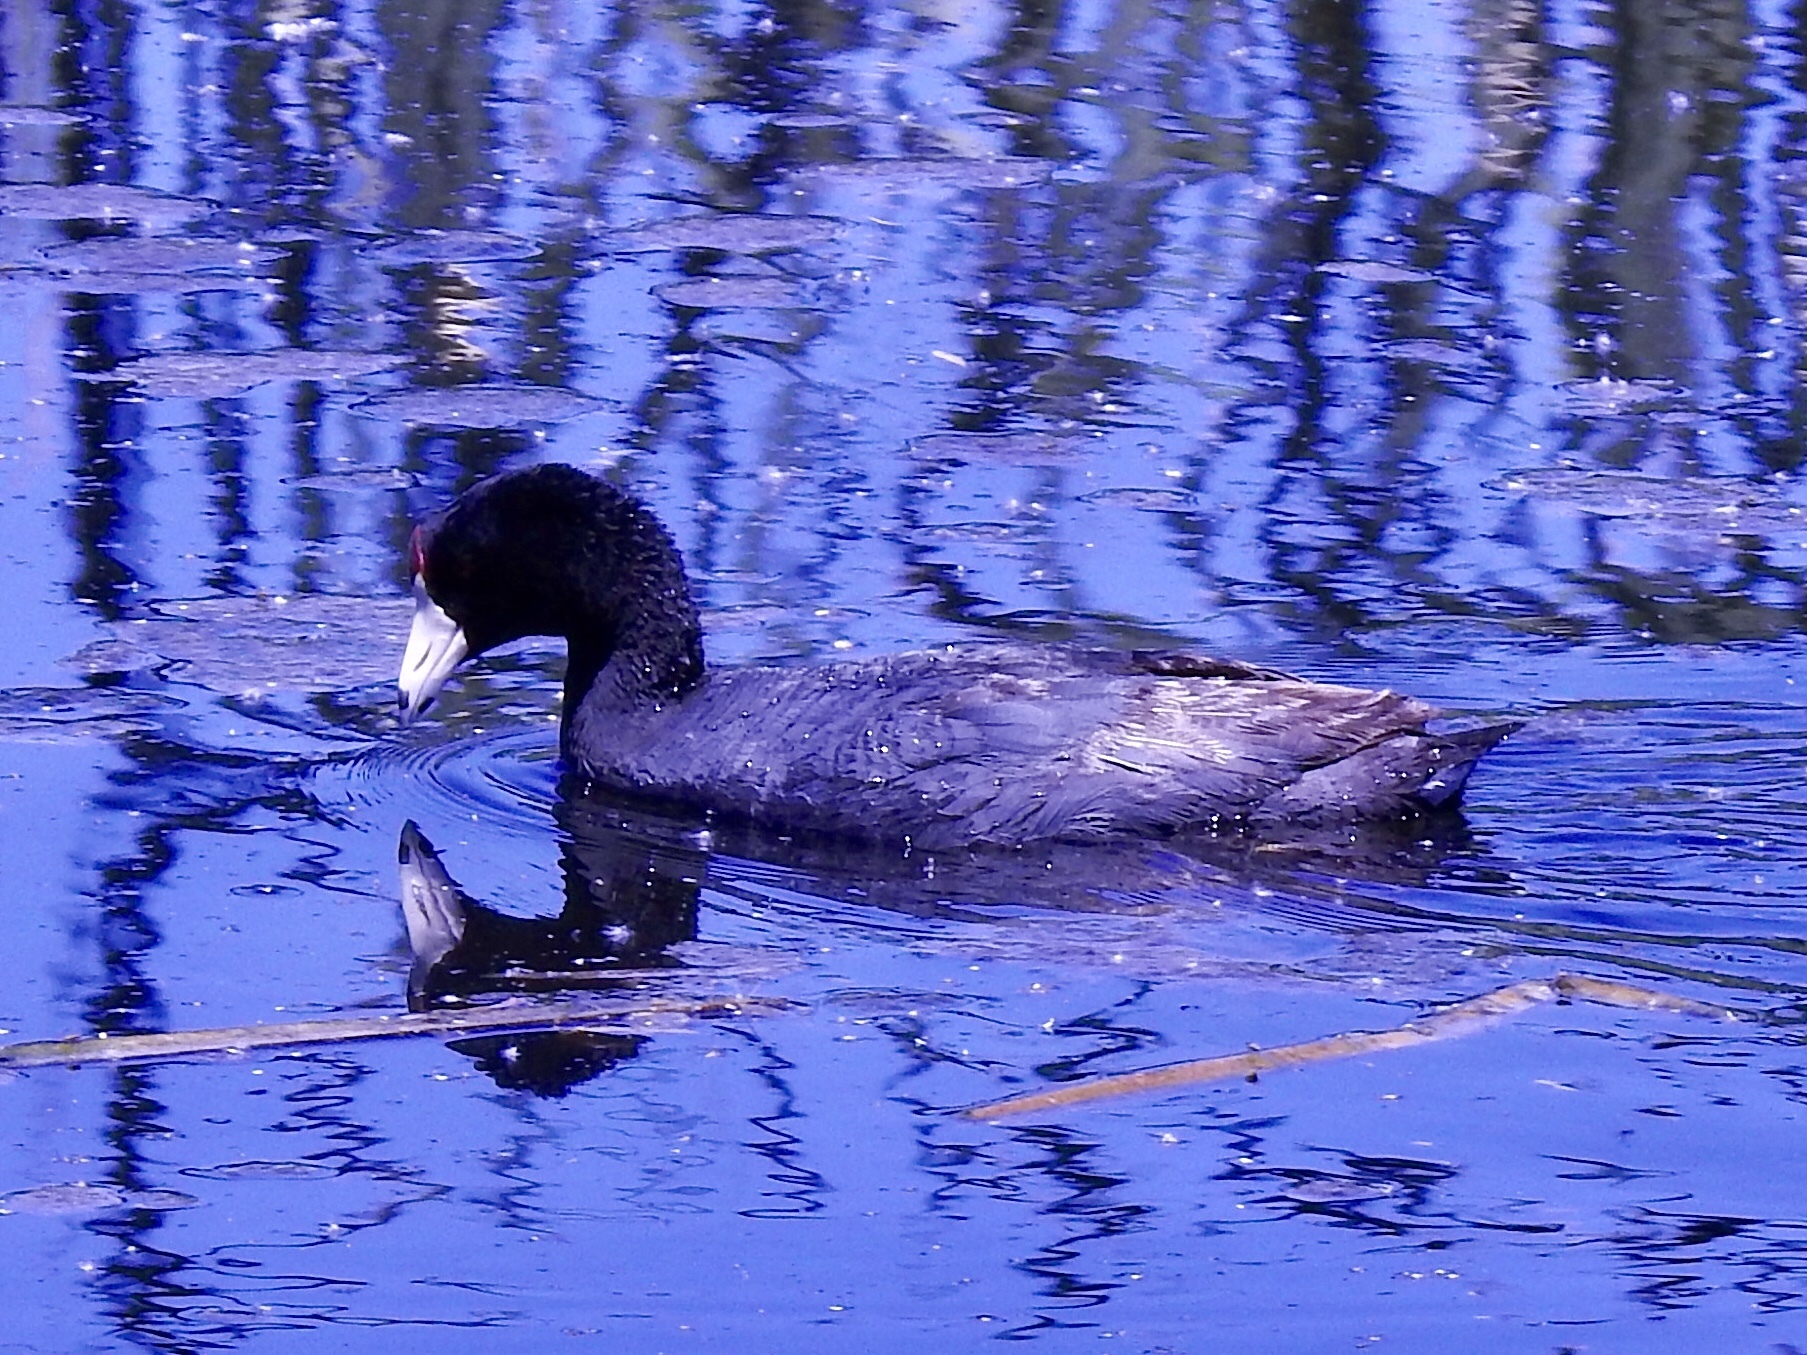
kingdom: Animalia
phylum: Chordata
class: Aves
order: Gruiformes
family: Rallidae
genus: Fulica
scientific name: Fulica americana
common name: American coot
